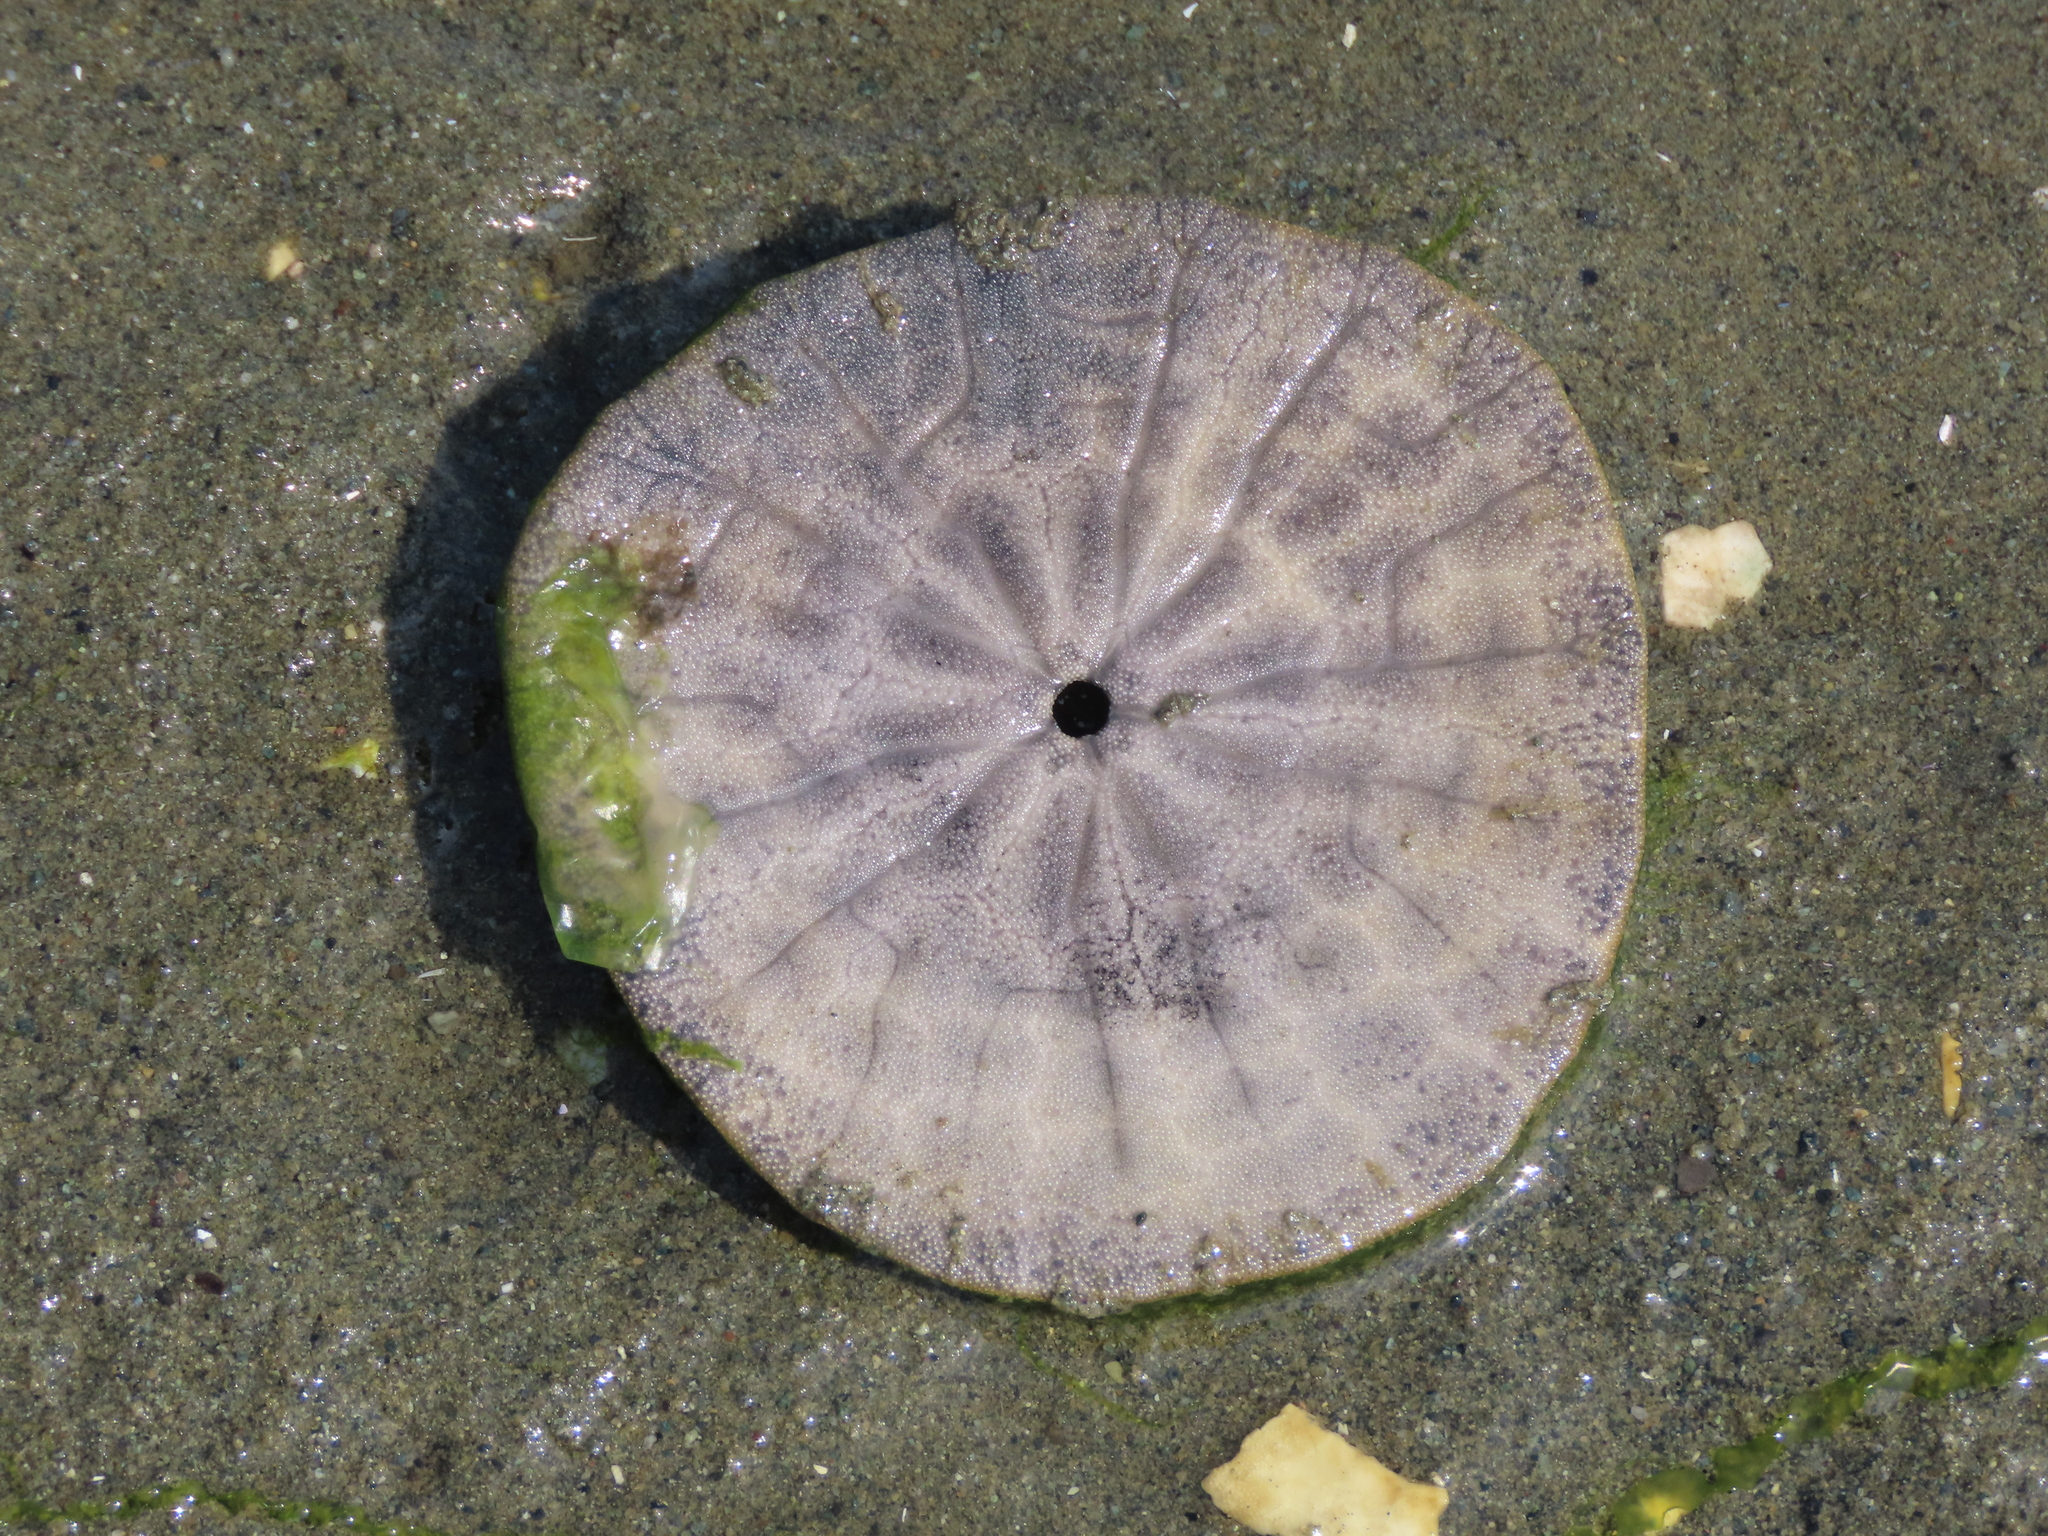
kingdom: Animalia
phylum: Echinodermata
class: Echinoidea
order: Echinolampadacea
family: Dendrasteridae
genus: Dendraster
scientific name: Dendraster excentricus
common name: Eccentric sand dollar sea urchin
